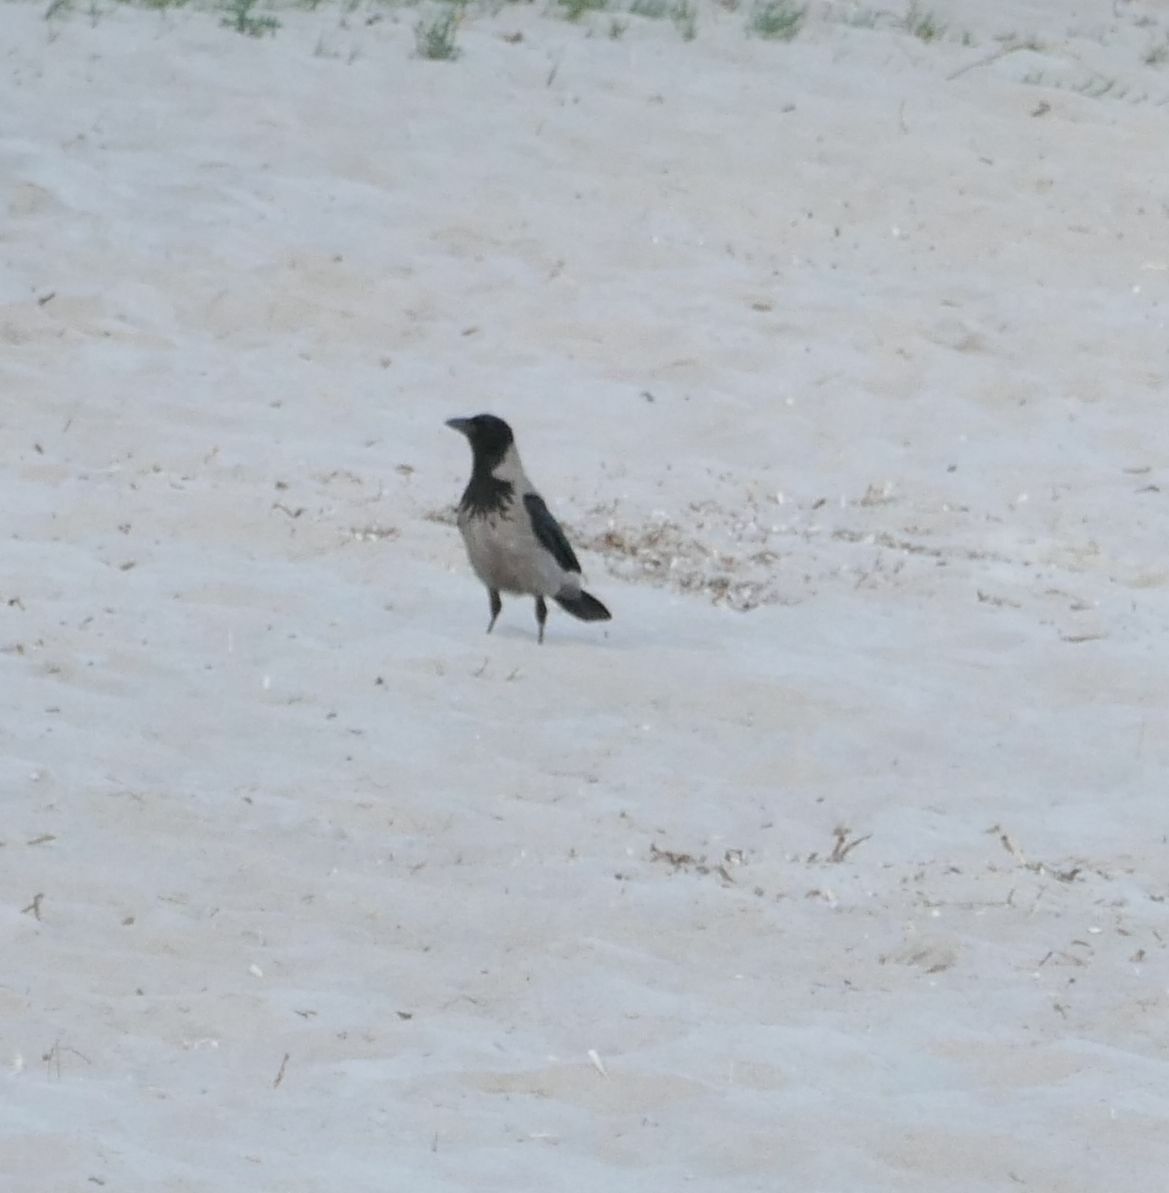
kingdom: Animalia
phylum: Chordata
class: Aves
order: Passeriformes
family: Corvidae
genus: Corvus
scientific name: Corvus cornix
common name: Hooded crow
